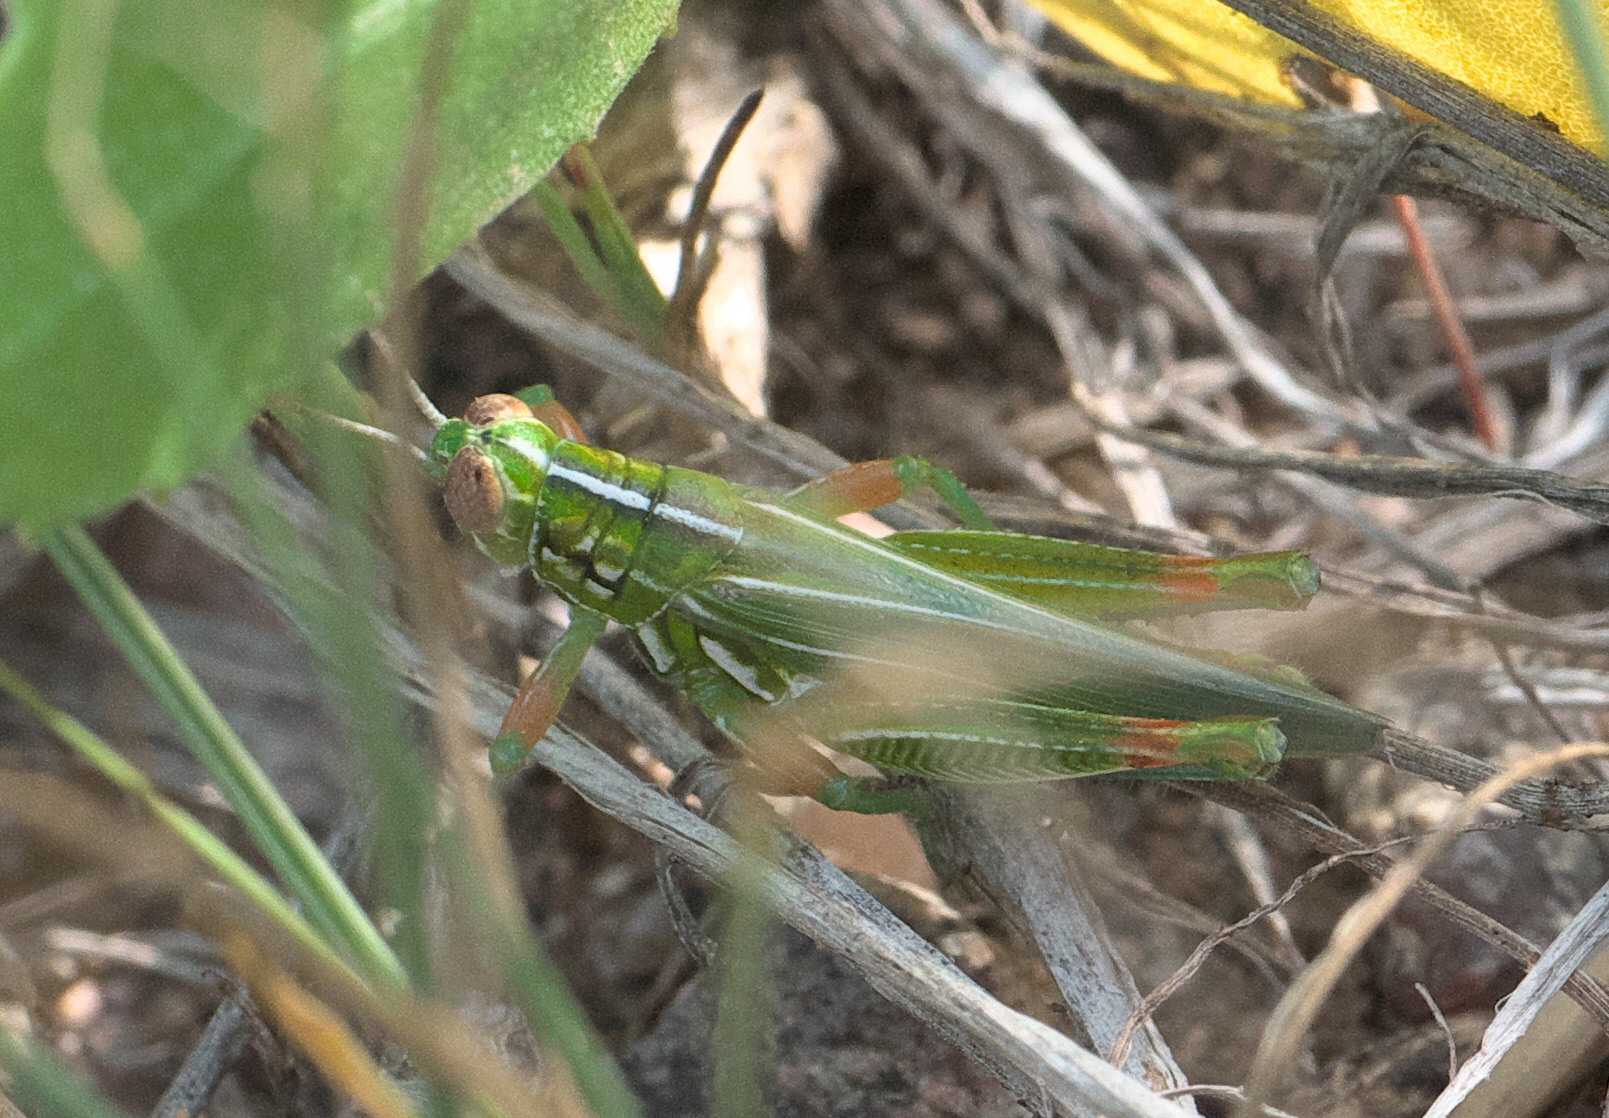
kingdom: Animalia
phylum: Arthropoda
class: Insecta
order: Orthoptera
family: Acrididae
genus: Hesperotettix
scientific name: Hesperotettix viridis
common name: Meadow purple-striped grasshopper
